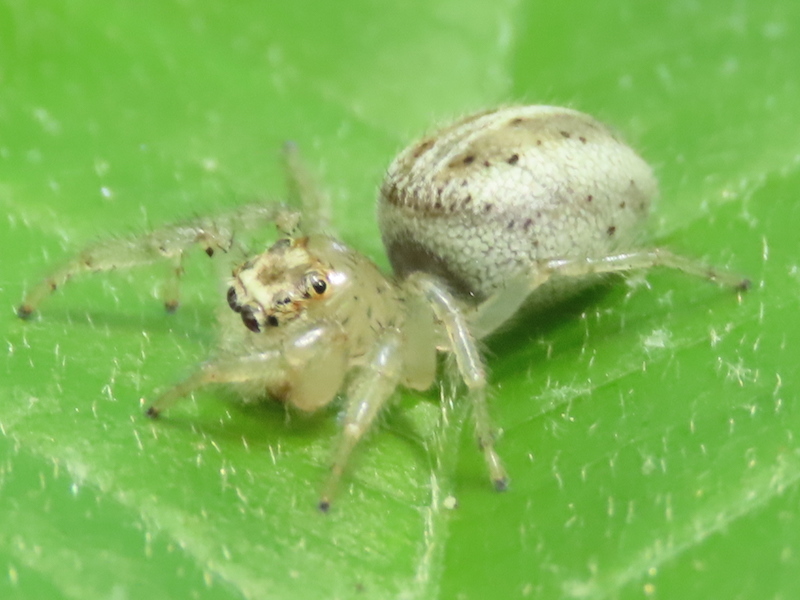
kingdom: Animalia
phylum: Arthropoda
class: Arachnida
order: Araneae
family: Salticidae
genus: Colonus
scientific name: Colonus sylvanus
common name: Jumping spiders
